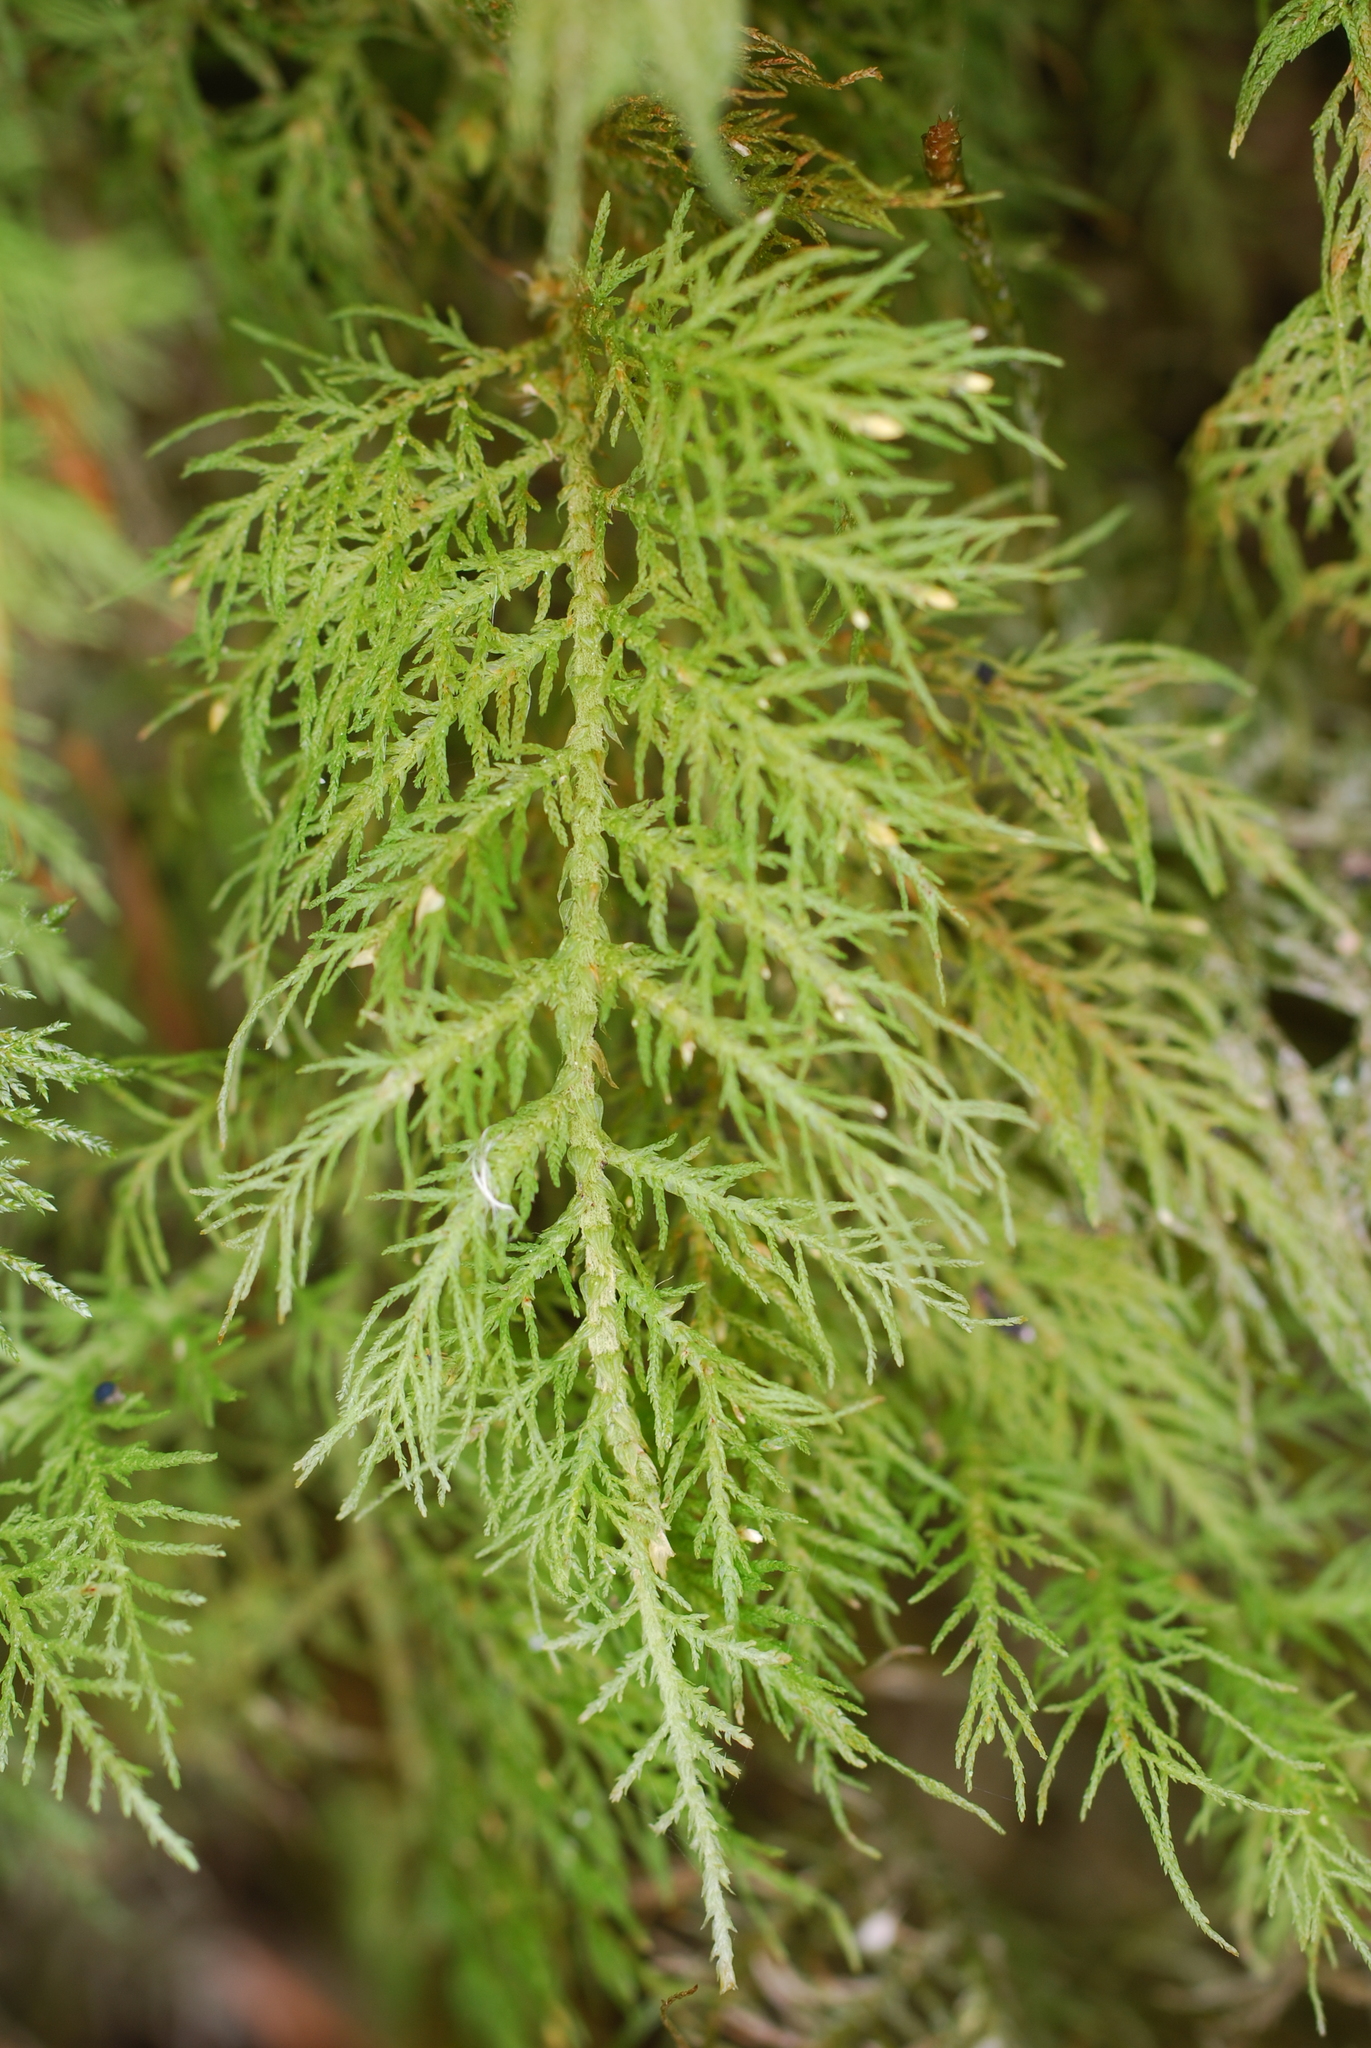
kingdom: Plantae
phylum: Bryophyta
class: Bryopsida
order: Hypnales
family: Thuidiaceae
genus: Thuidium
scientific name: Thuidium tamariscinum
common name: Common tamarisk-moss
